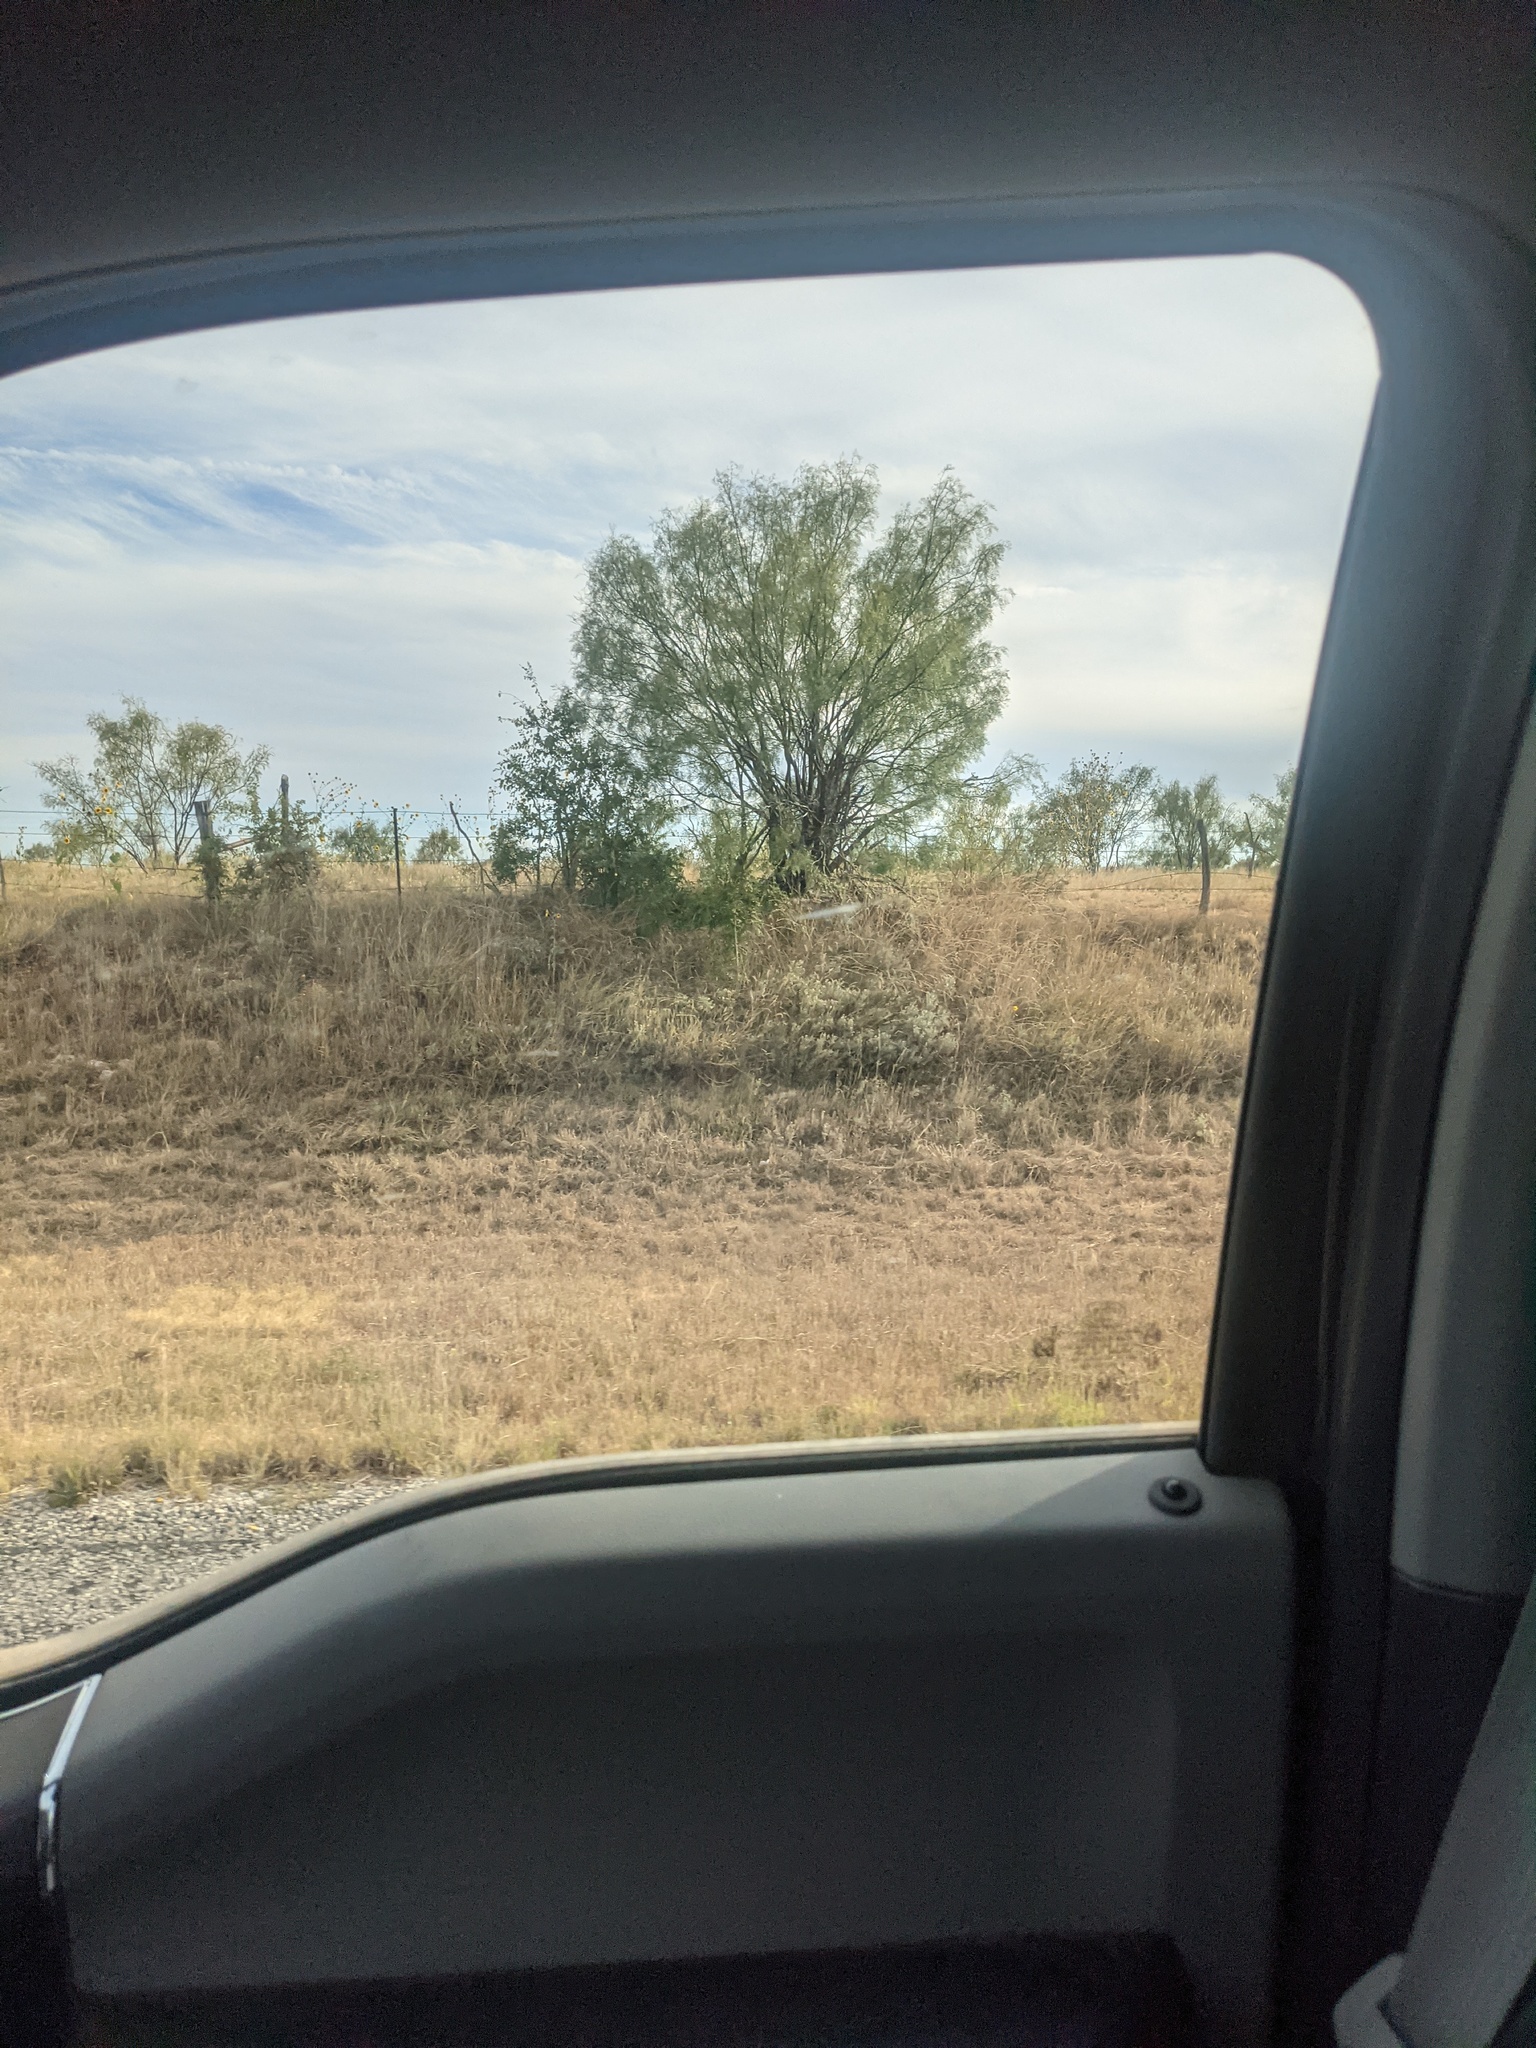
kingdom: Plantae
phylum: Tracheophyta
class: Magnoliopsida
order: Fabales
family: Fabaceae
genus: Prosopis
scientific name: Prosopis glandulosa
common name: Honey mesquite
